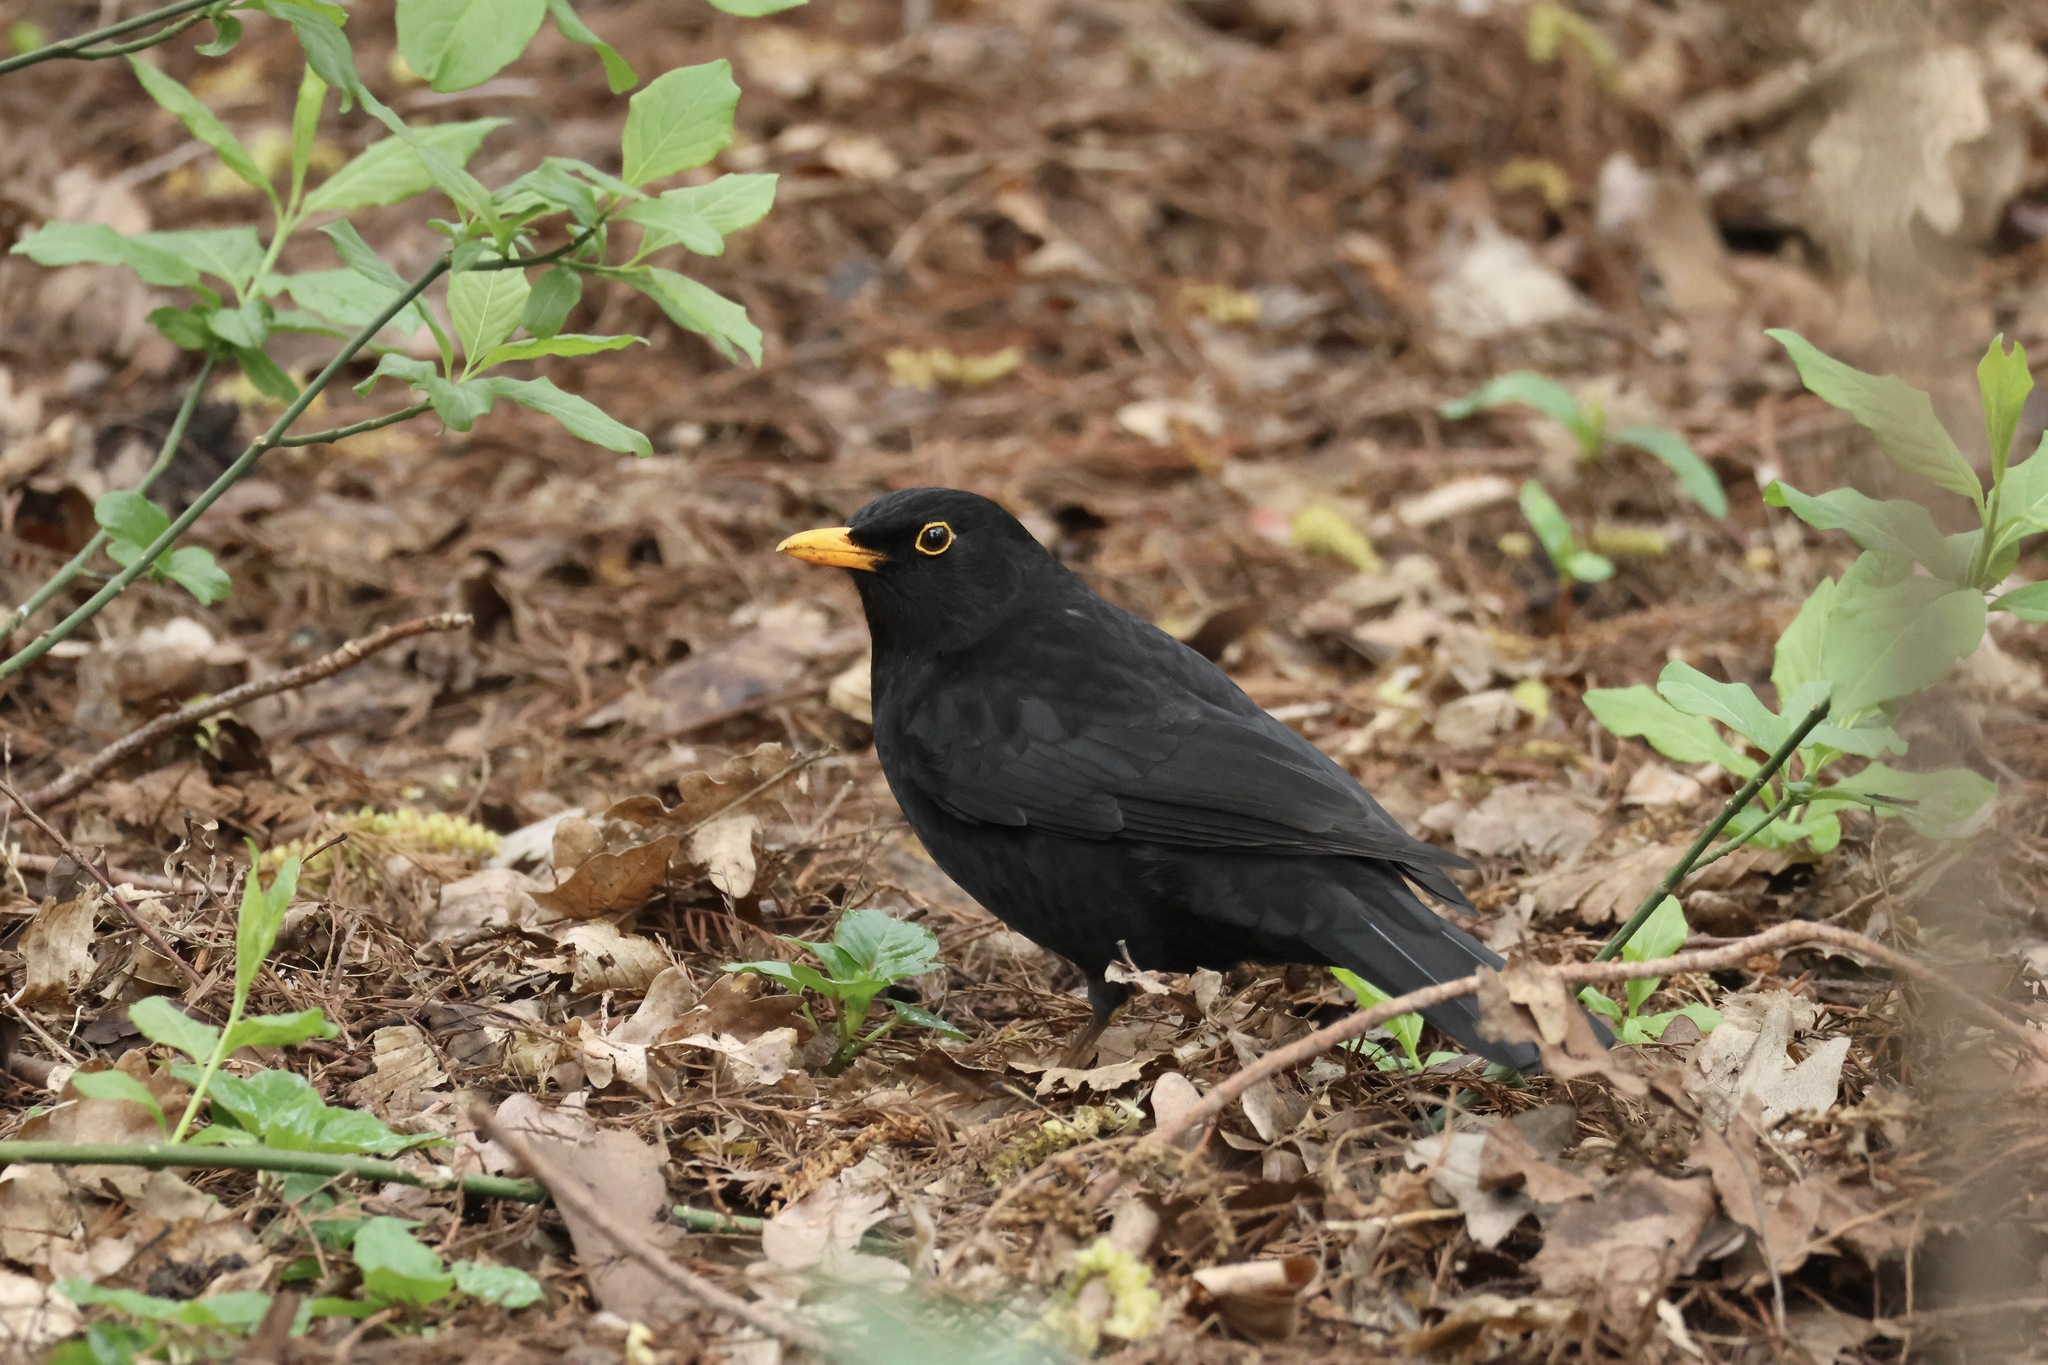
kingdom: Animalia
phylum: Chordata
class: Aves
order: Passeriformes
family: Turdidae
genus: Turdus
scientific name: Turdus merula
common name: Common blackbird
